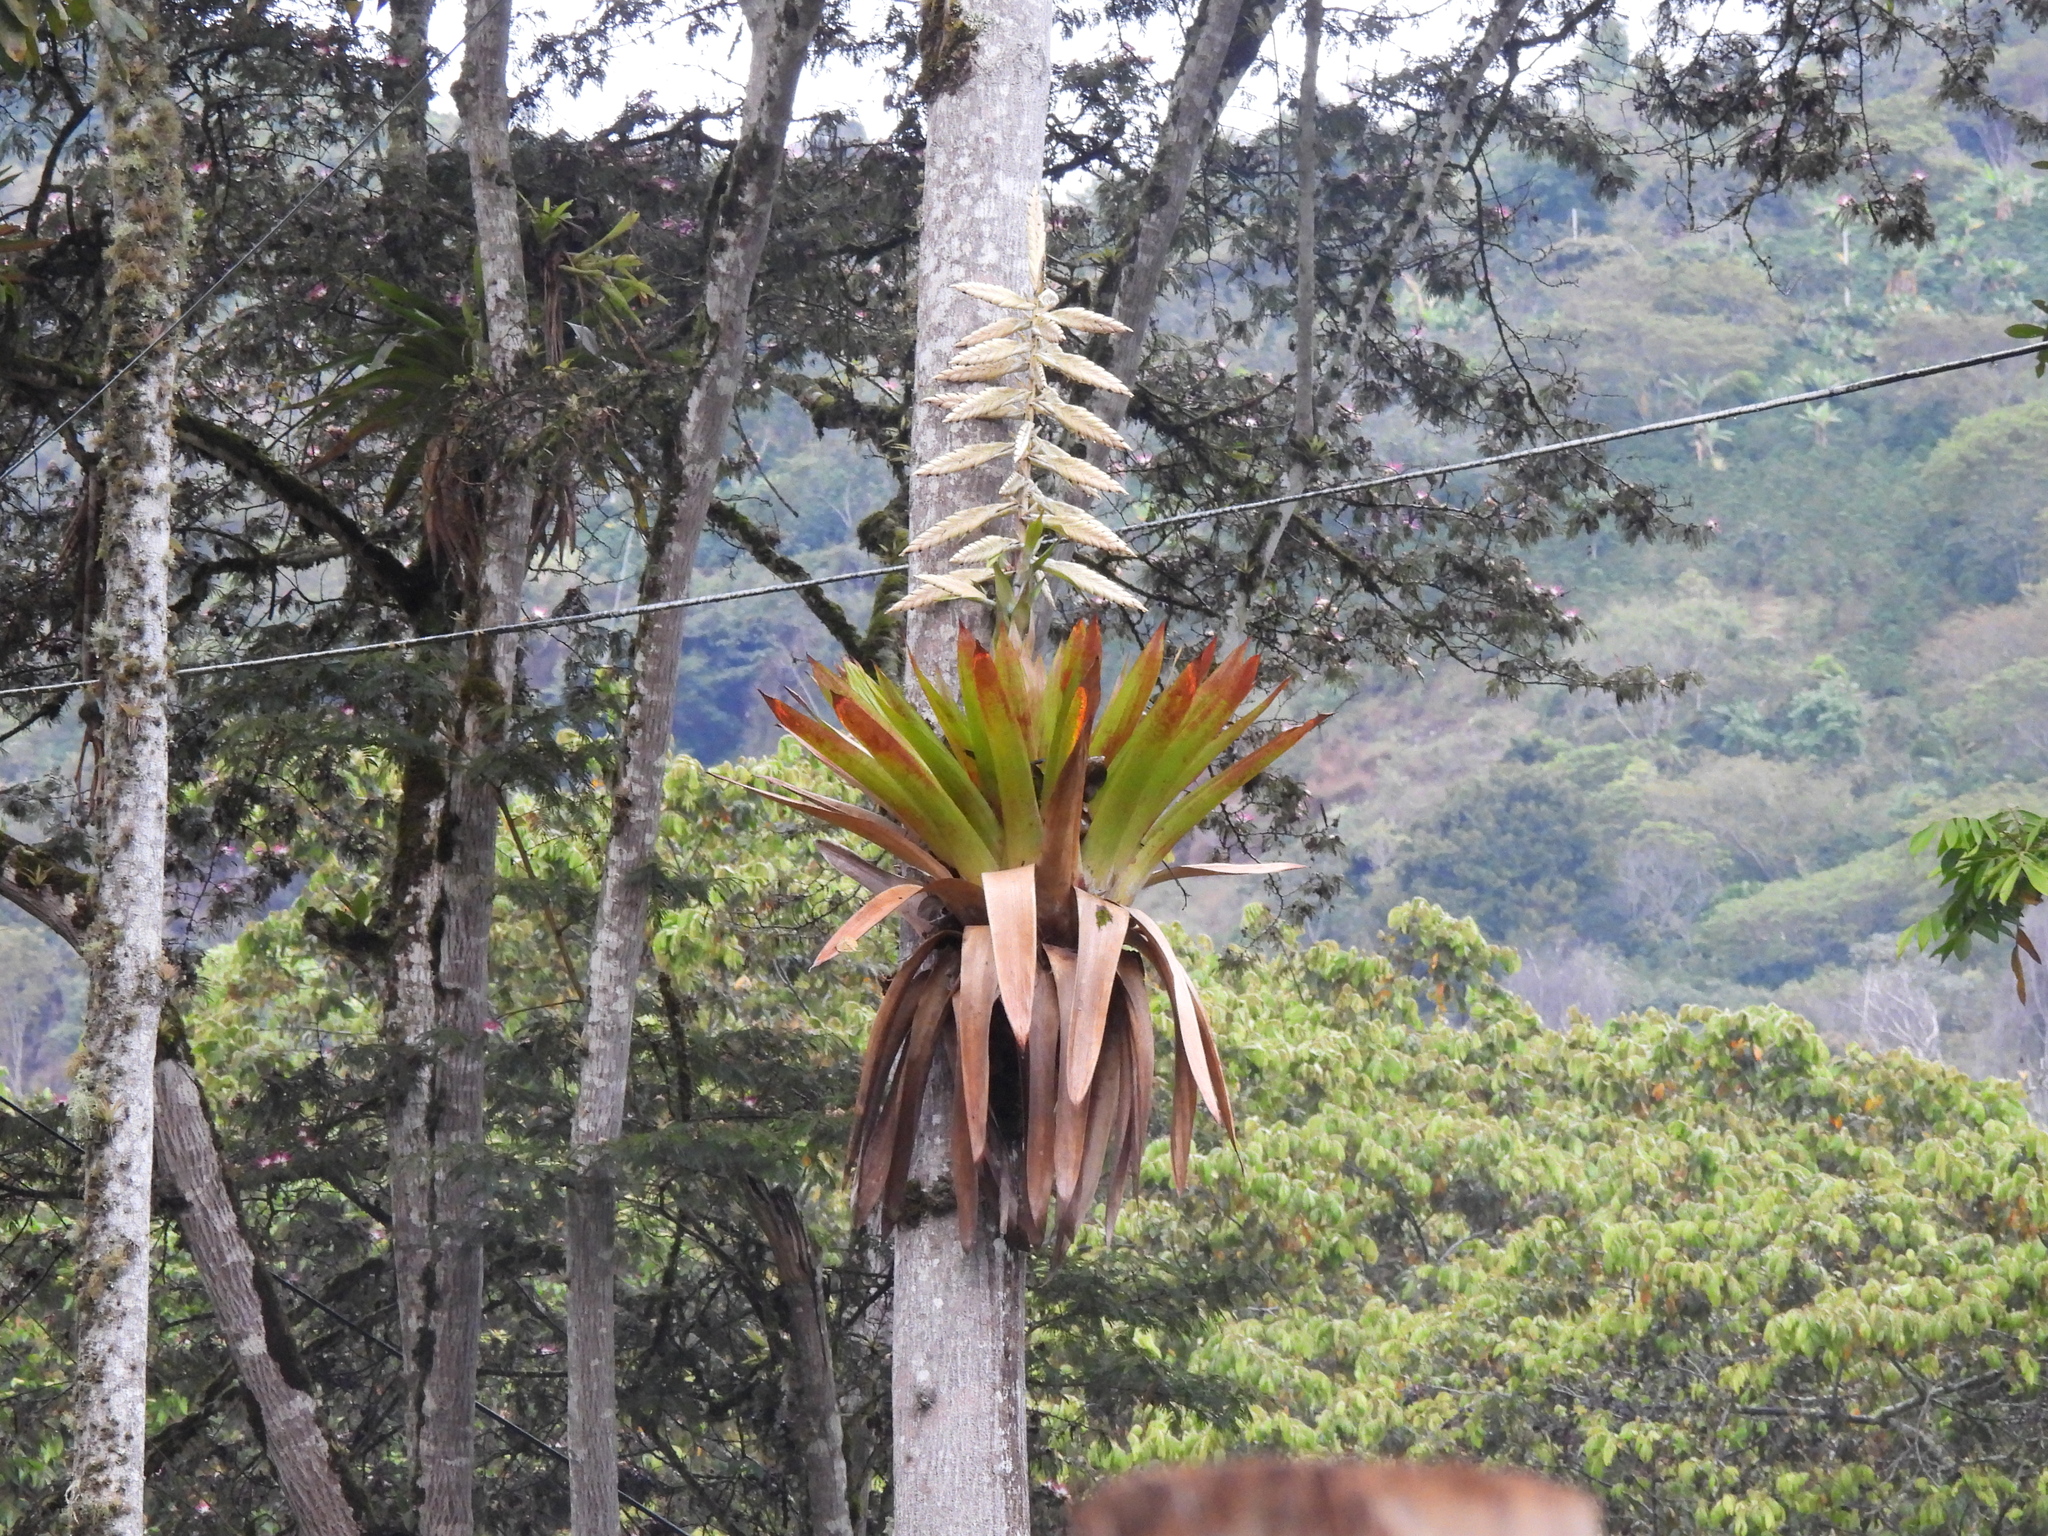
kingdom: Plantae
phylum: Tracheophyta
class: Liliopsida
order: Poales
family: Bromeliaceae
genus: Tillandsia
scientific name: Tillandsia fendleri
